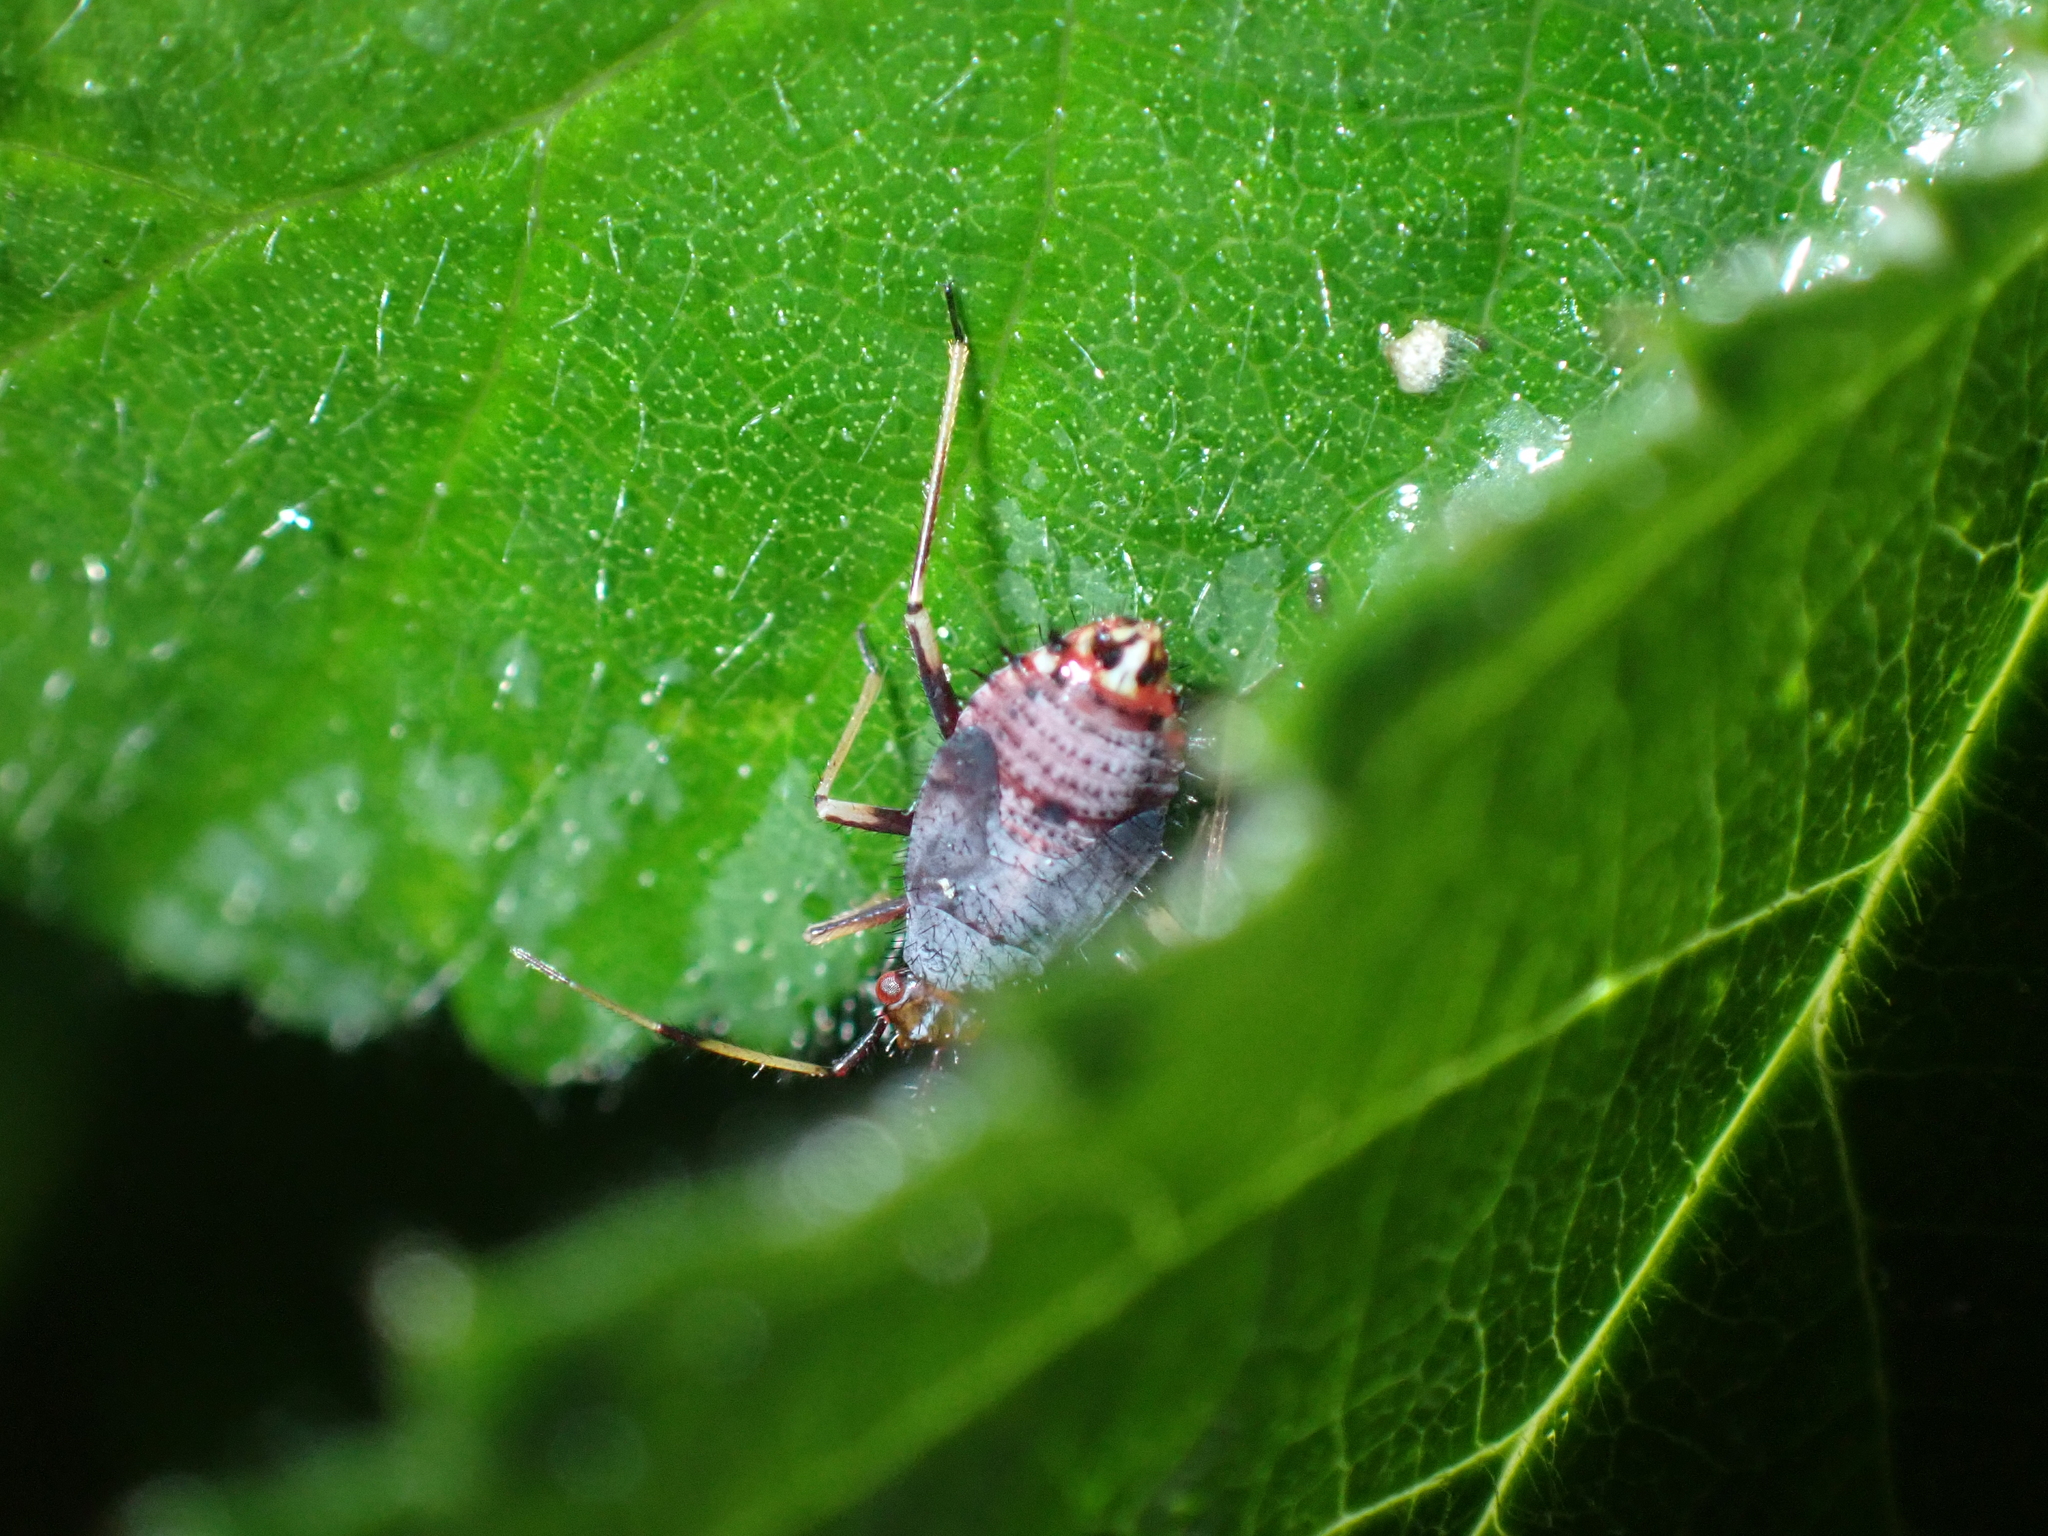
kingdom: Animalia
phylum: Arthropoda
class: Insecta
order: Hemiptera
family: Miridae
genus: Deraeocoris
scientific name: Deraeocoris ruber
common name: Plant bug
